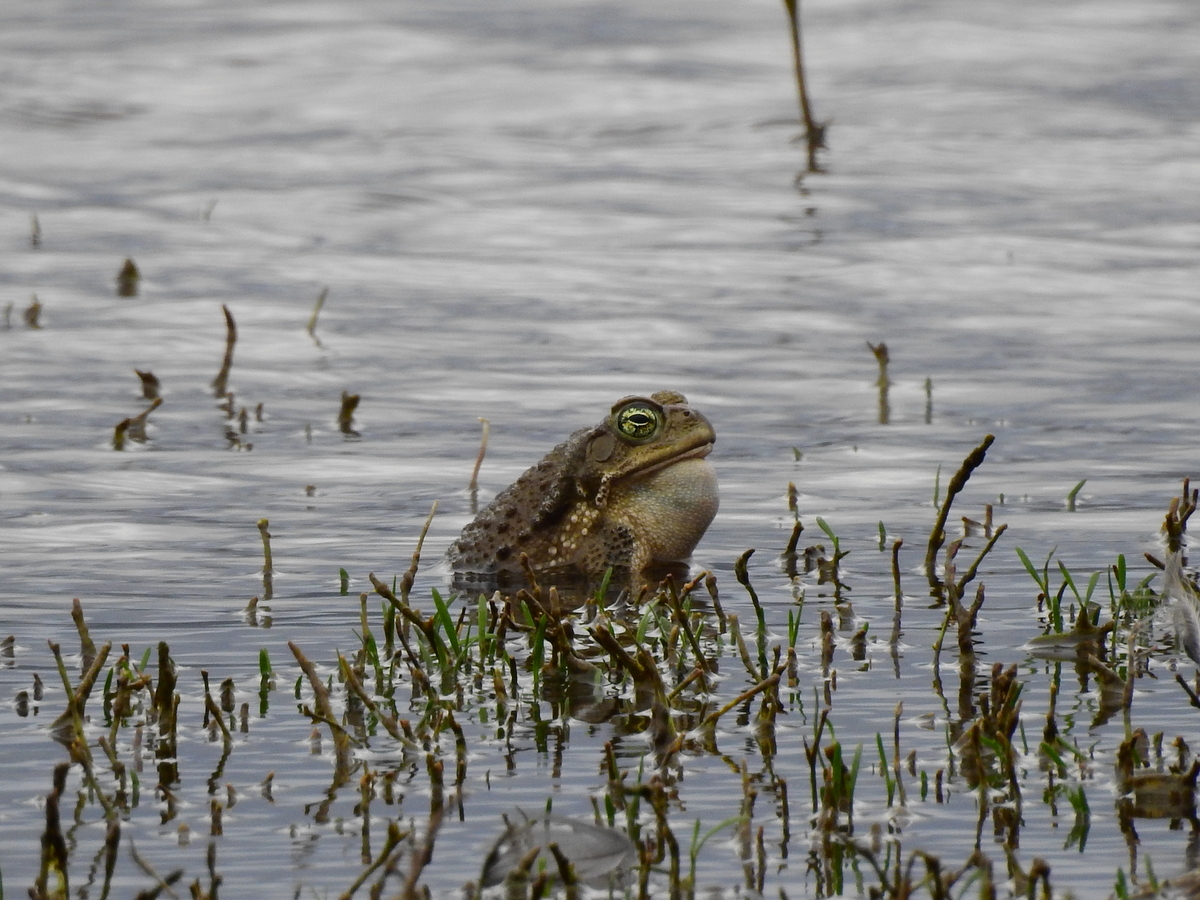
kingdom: Animalia
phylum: Chordata
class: Amphibia
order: Anura
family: Bufonidae
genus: Rhinella
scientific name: Rhinella arenarum
